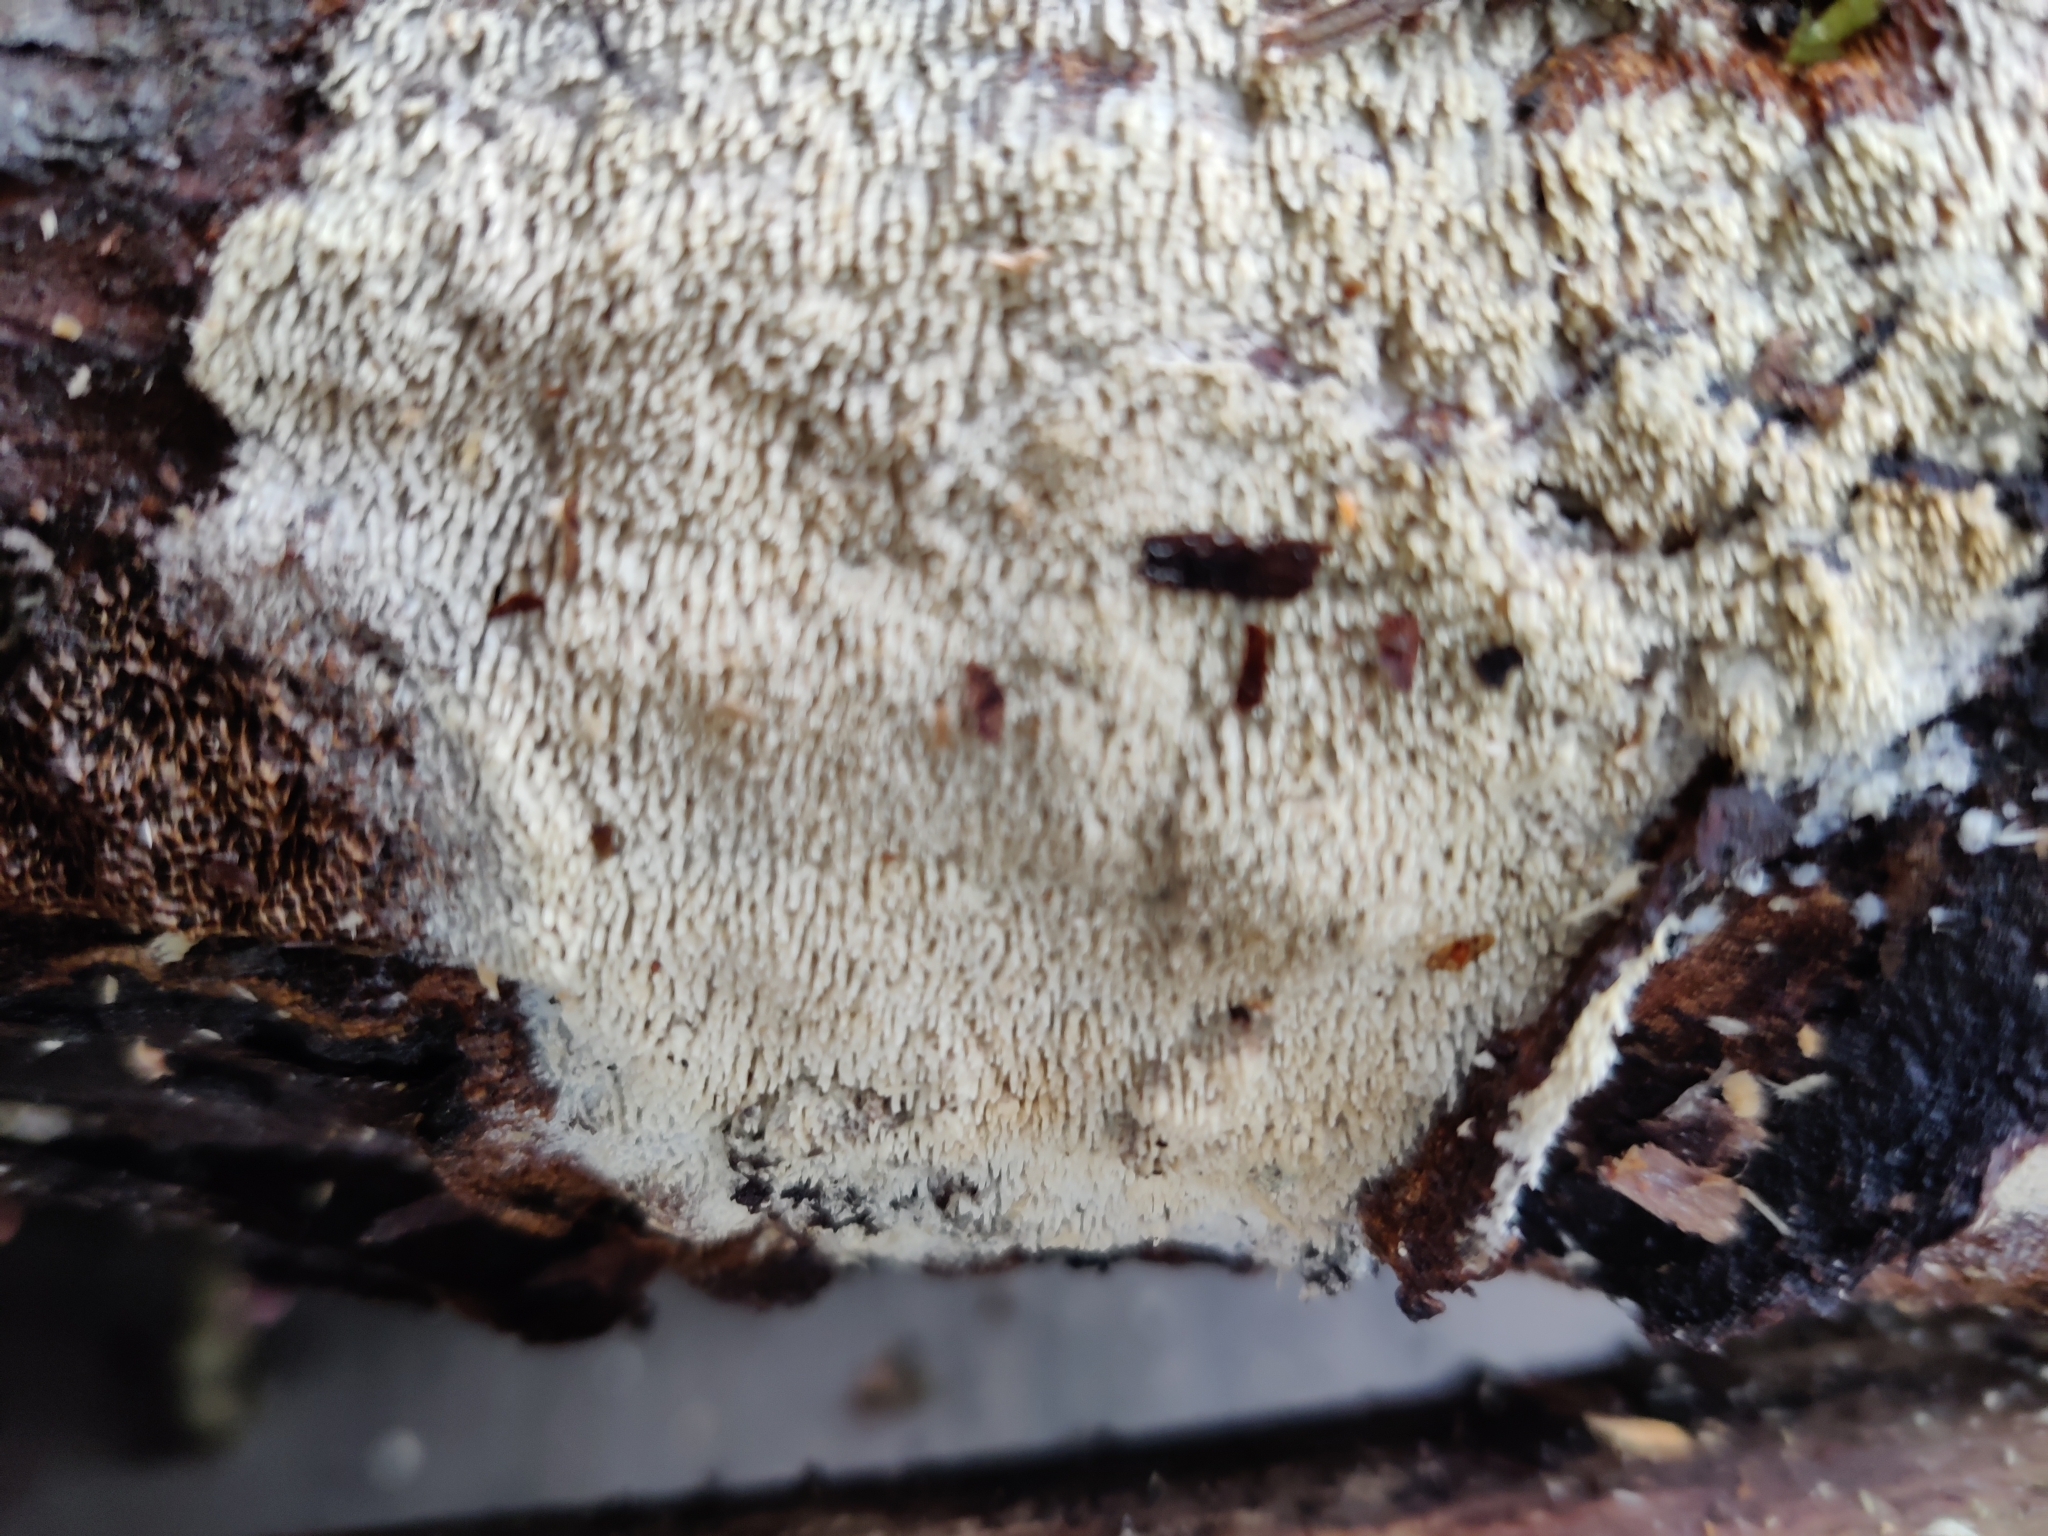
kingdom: Fungi
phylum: Basidiomycota
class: Agaricomycetes
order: Cantharellales
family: Hydnaceae
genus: Sistotrema
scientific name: Sistotrema raduloides
